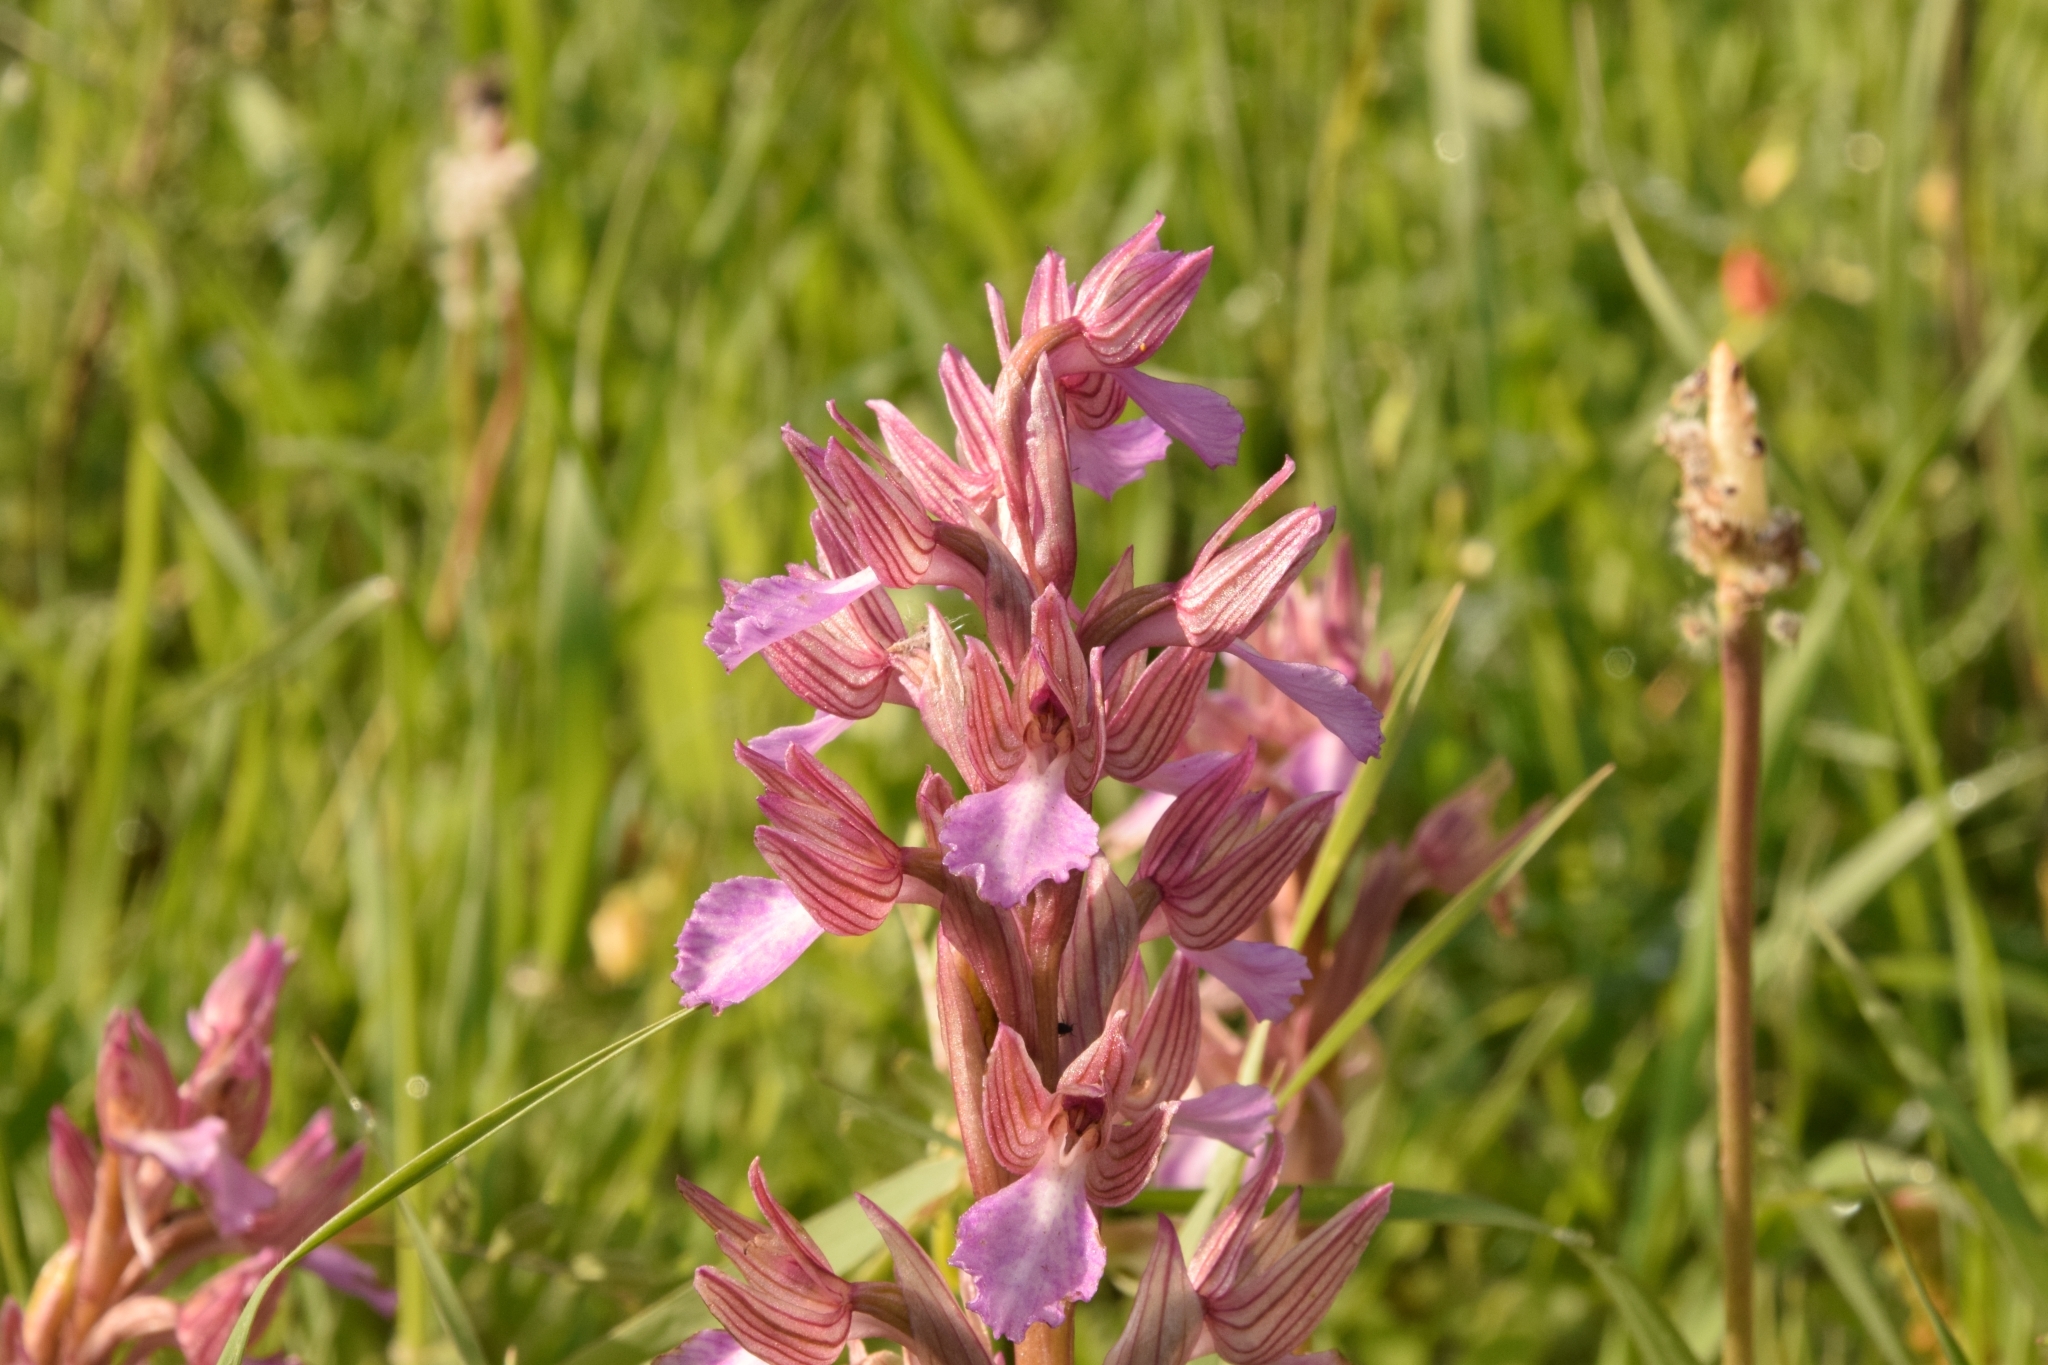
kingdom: Plantae
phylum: Tracheophyta
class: Liliopsida
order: Asparagales
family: Orchidaceae
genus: Anacamptis
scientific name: Anacamptis papilionacea
